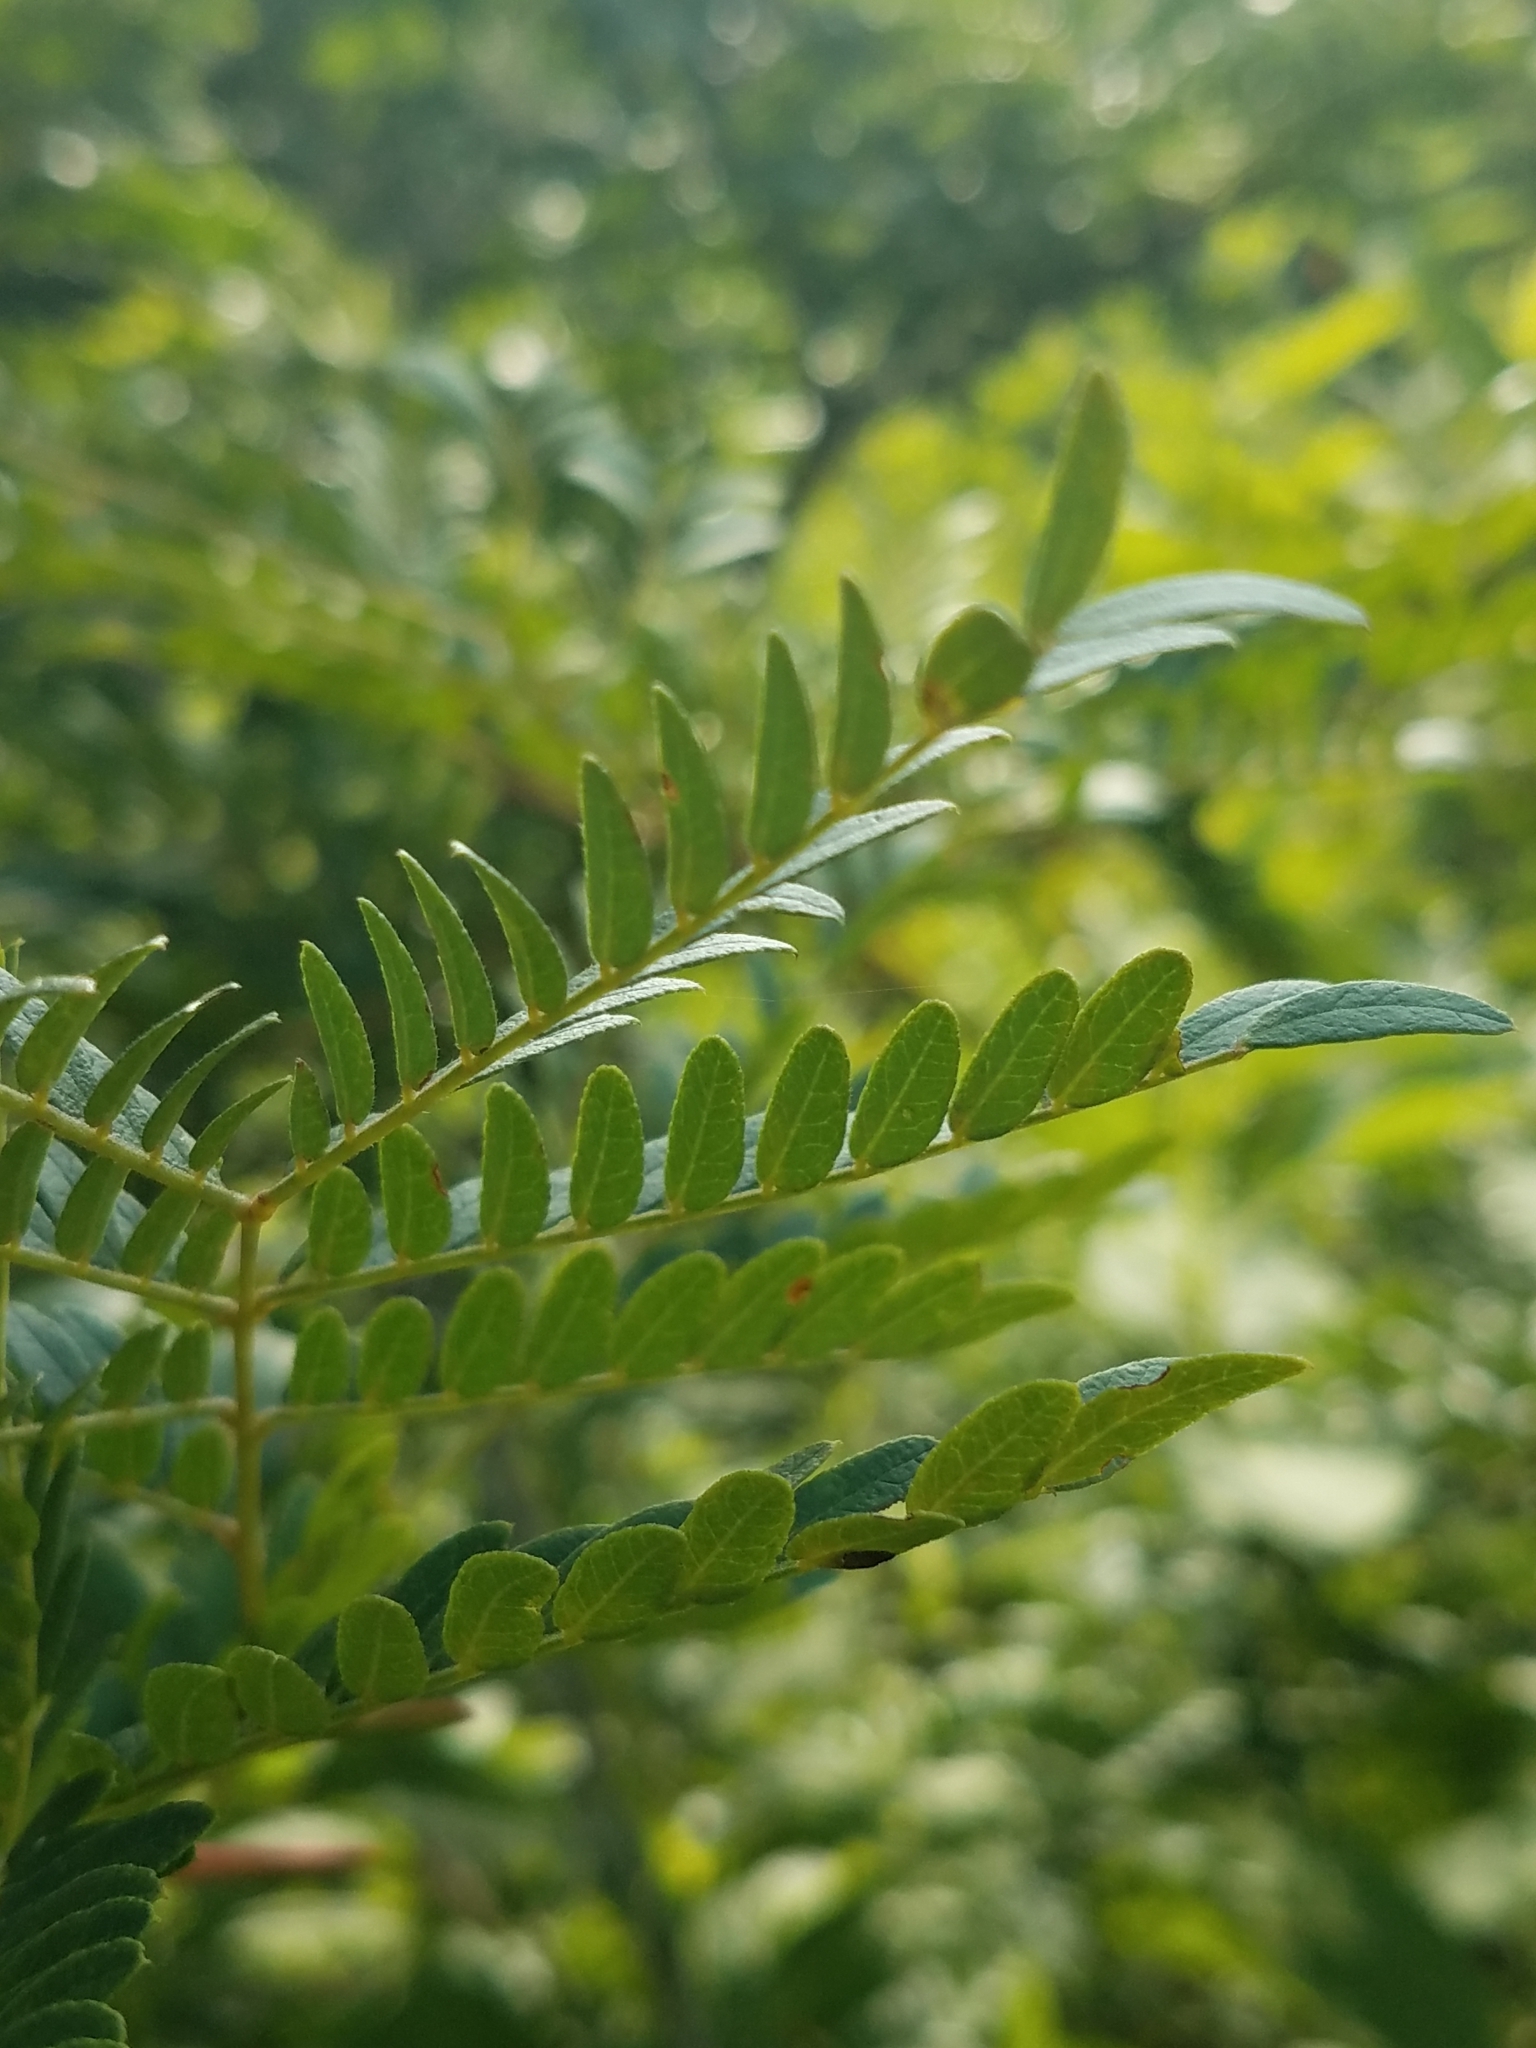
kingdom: Plantae
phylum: Tracheophyta
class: Magnoliopsida
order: Fabales
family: Fabaceae
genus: Gleditsia
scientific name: Gleditsia triacanthos
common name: Common honeylocust
